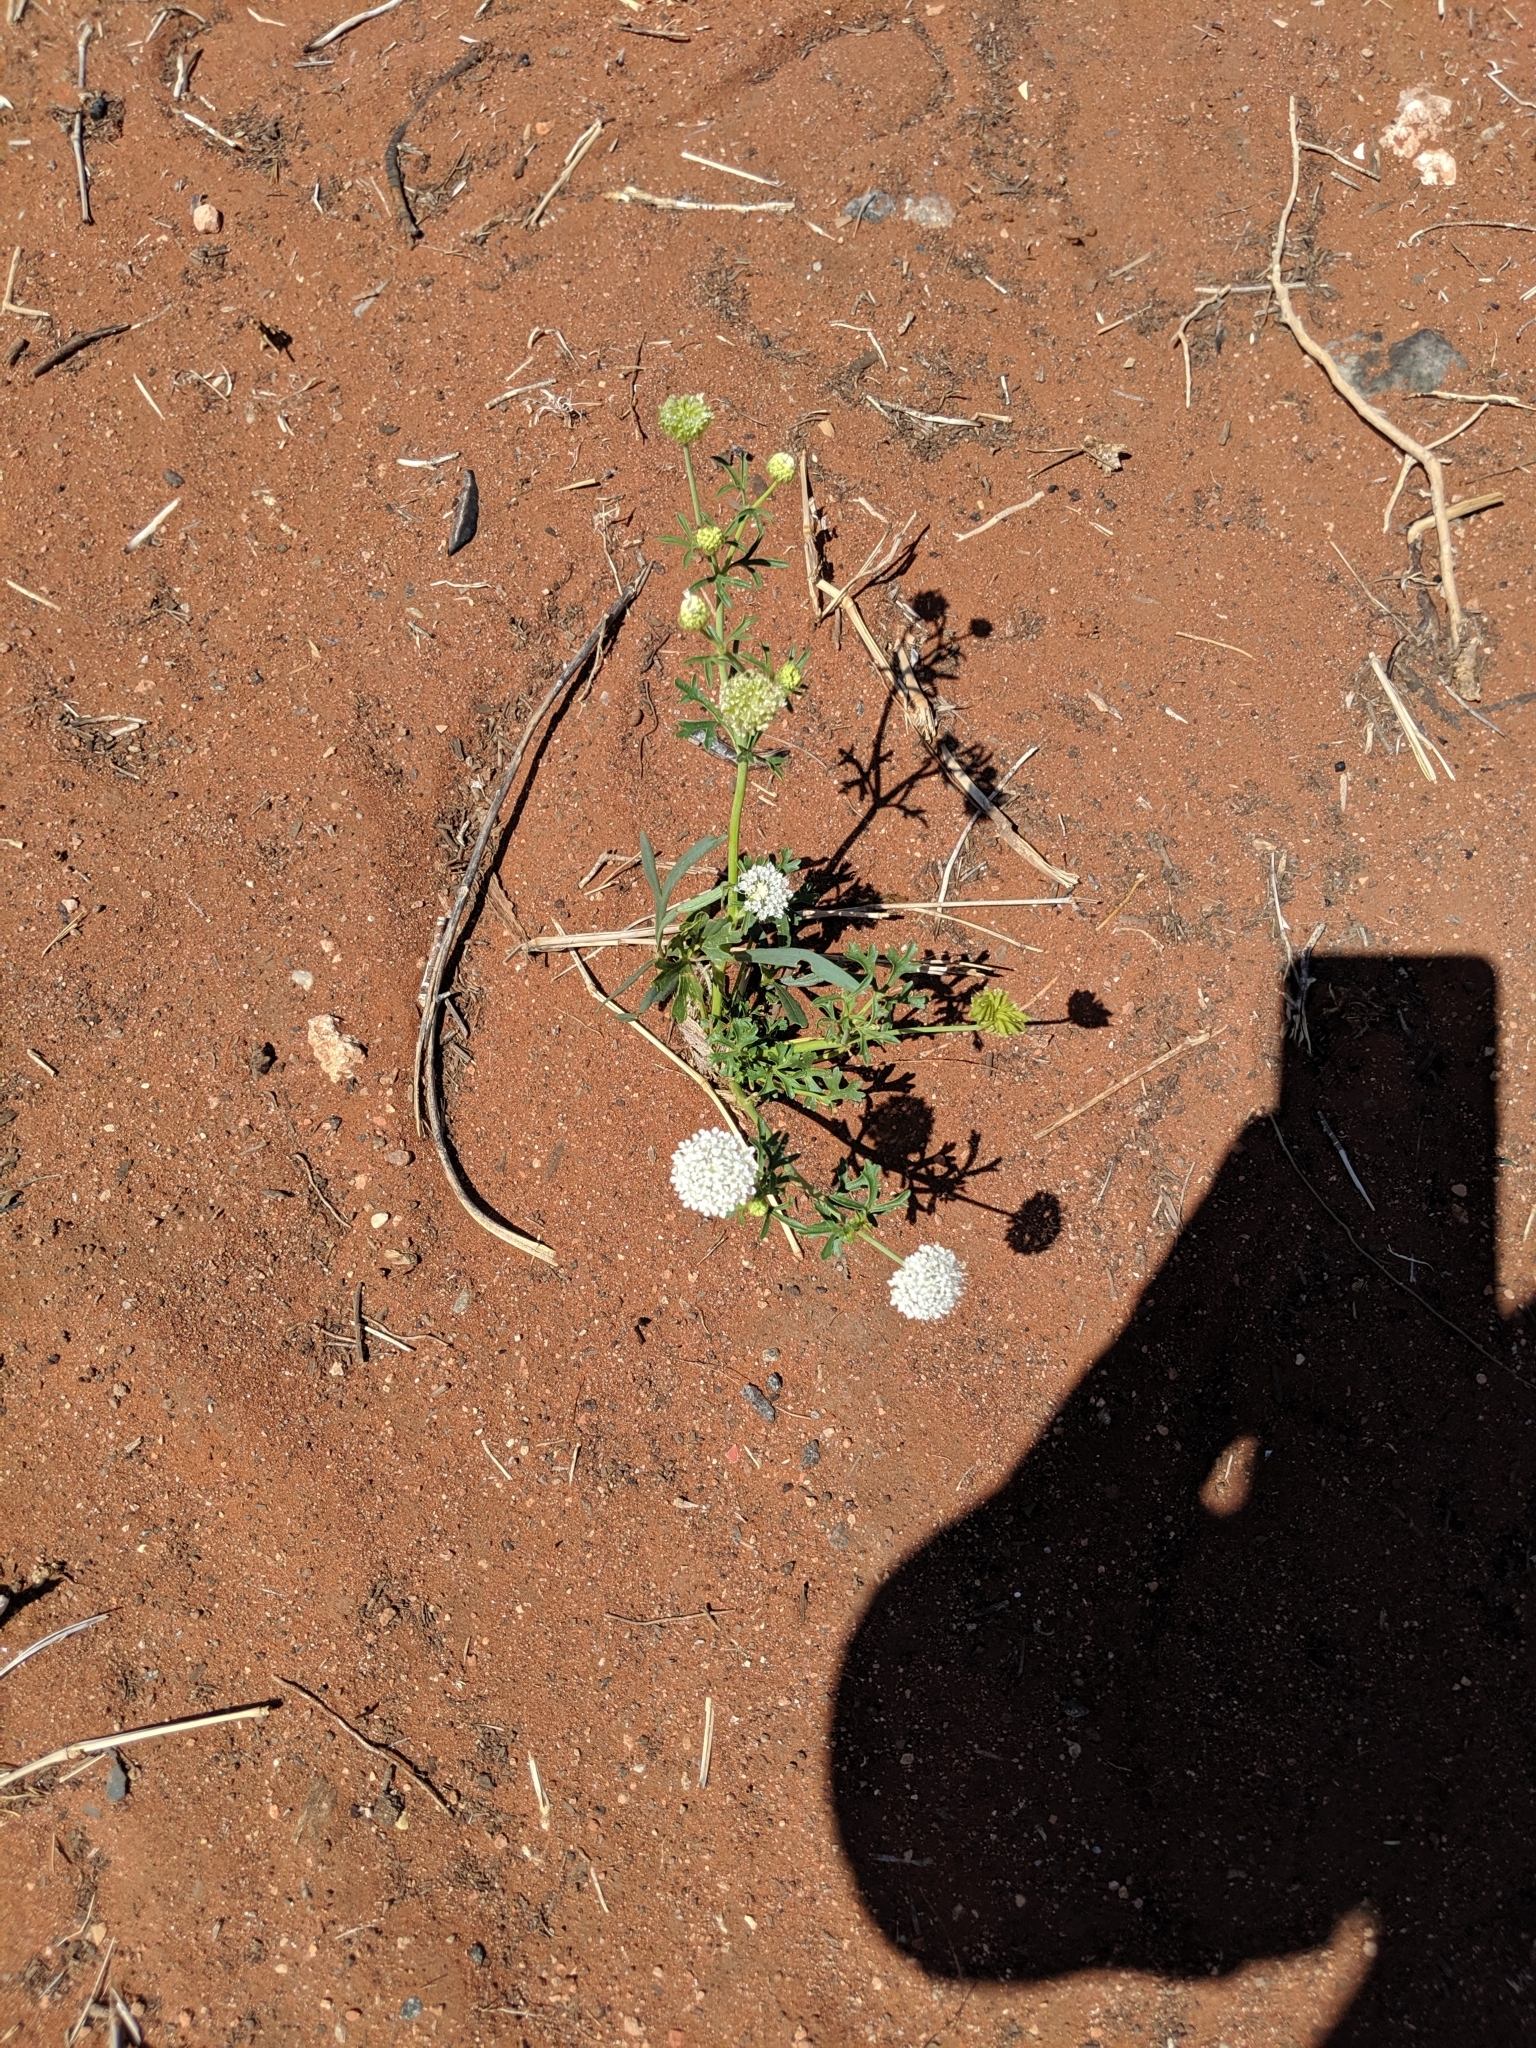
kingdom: Plantae
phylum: Tracheophyta
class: Magnoliopsida
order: Apiales
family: Araliaceae
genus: Trachymene
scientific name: Trachymene glaucifolia
